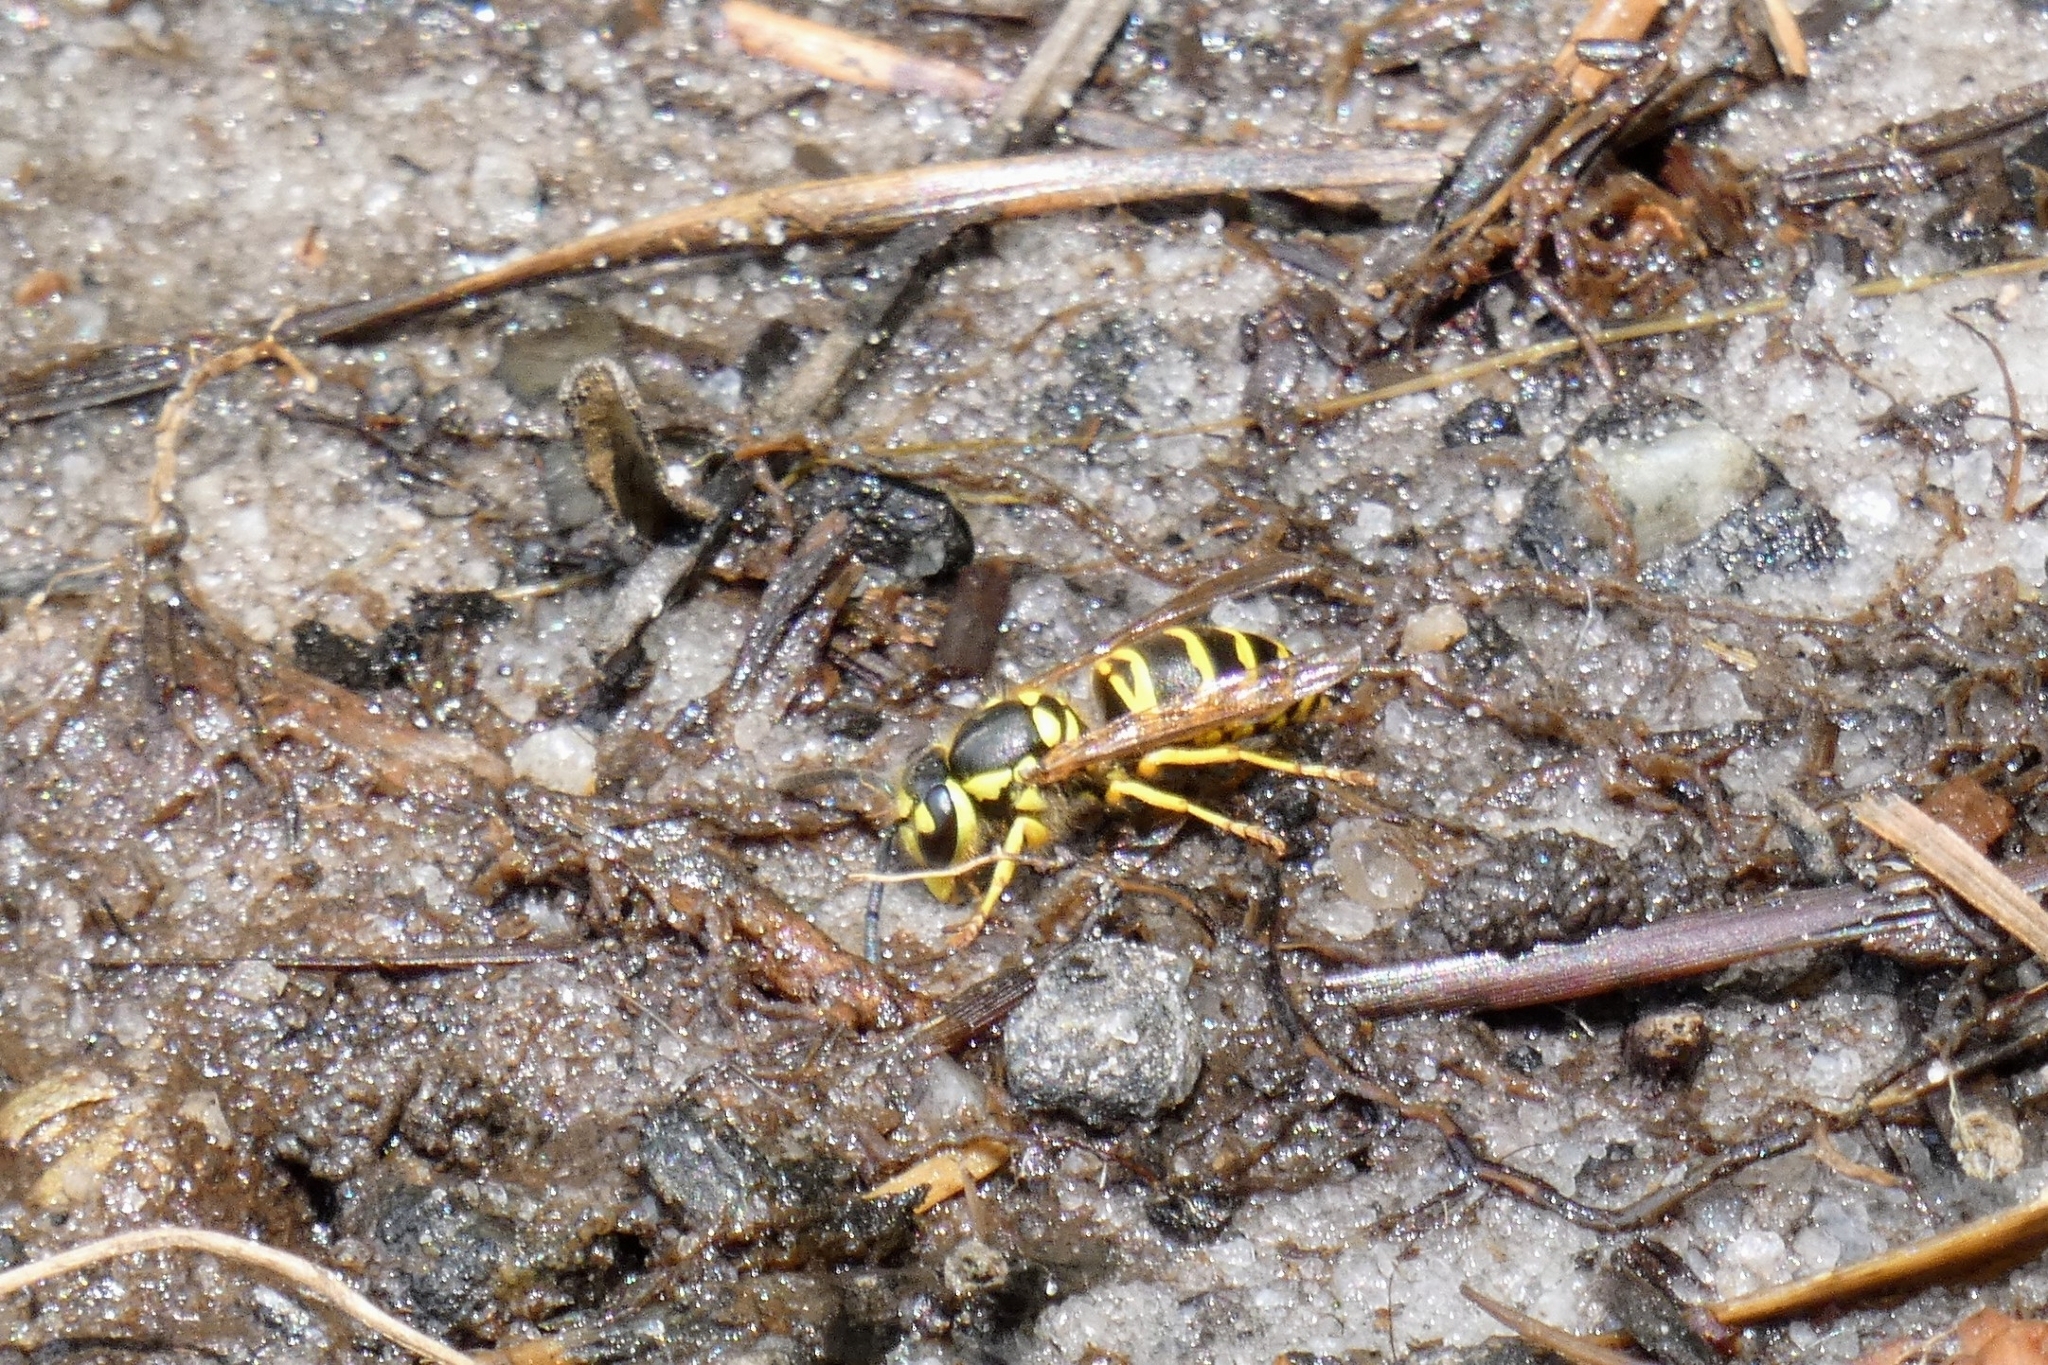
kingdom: Animalia
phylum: Arthropoda
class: Insecta
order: Hymenoptera
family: Vespidae
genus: Vespula
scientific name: Vespula maculifrons
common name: Eastern yellowjacket
